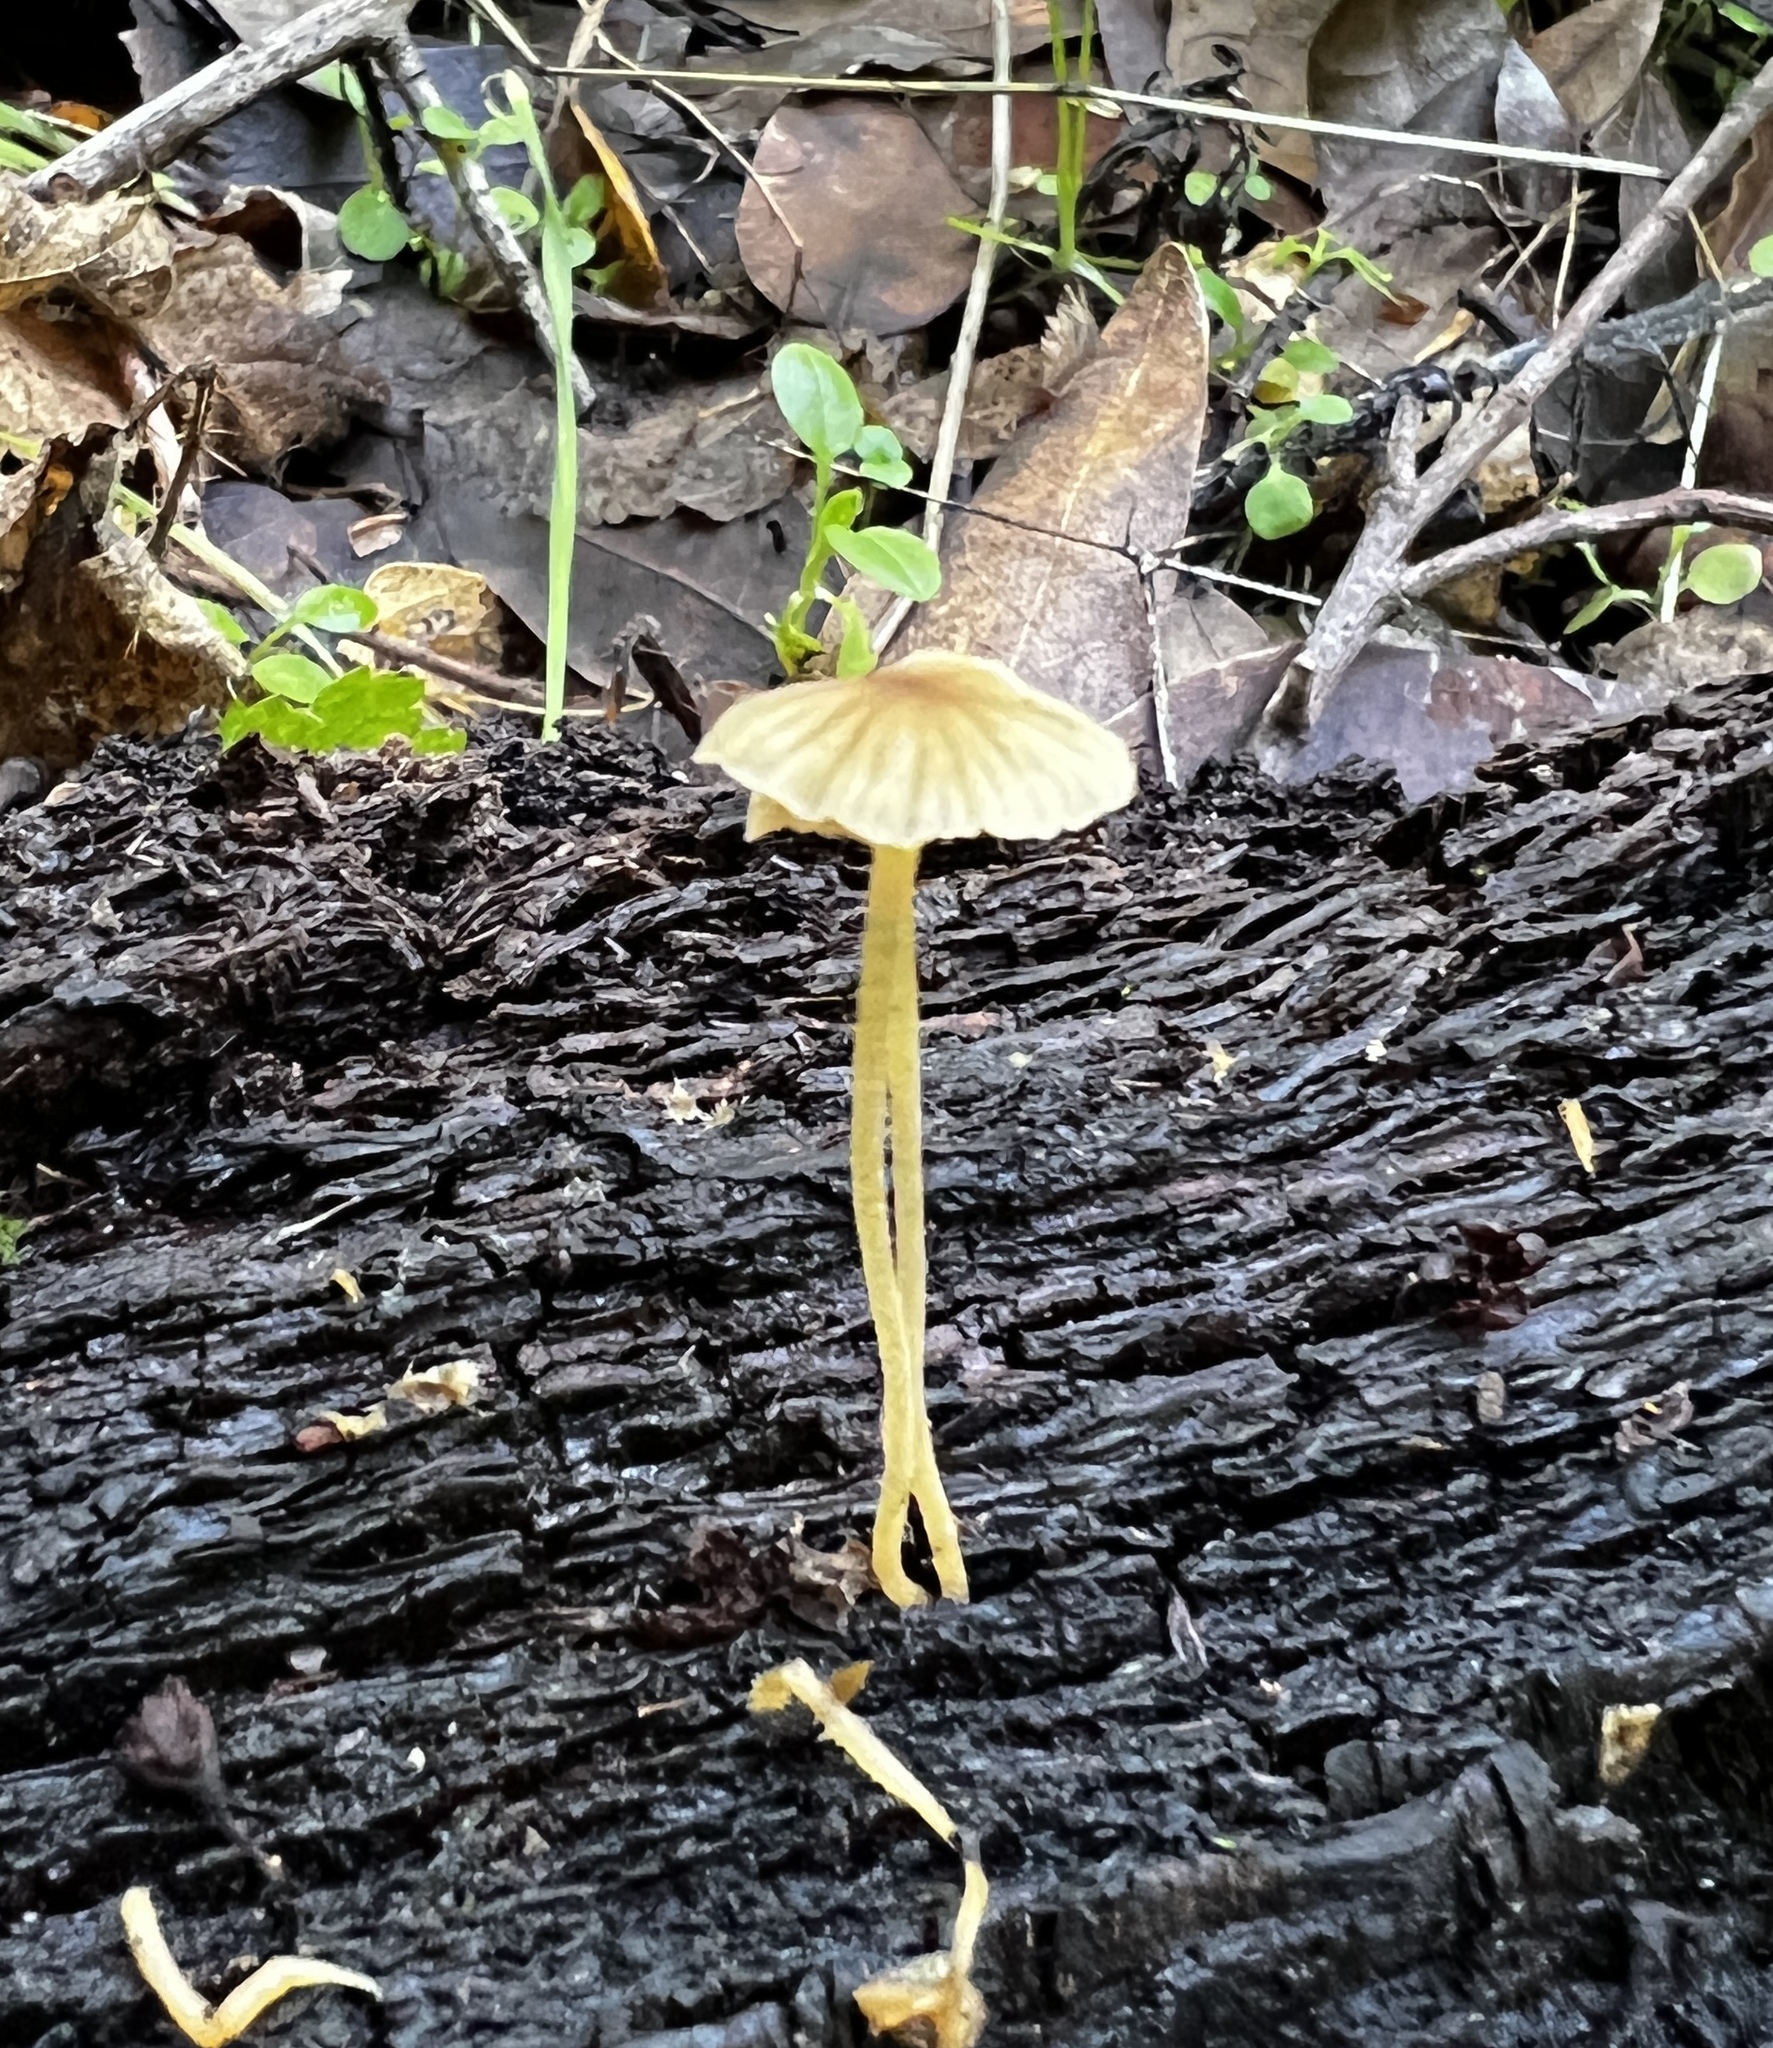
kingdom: Fungi
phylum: Basidiomycota
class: Agaricomycetes
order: Agaricales
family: Porotheleaceae
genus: Phloeomana
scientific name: Phloeomana speirea
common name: Bark bonnet
